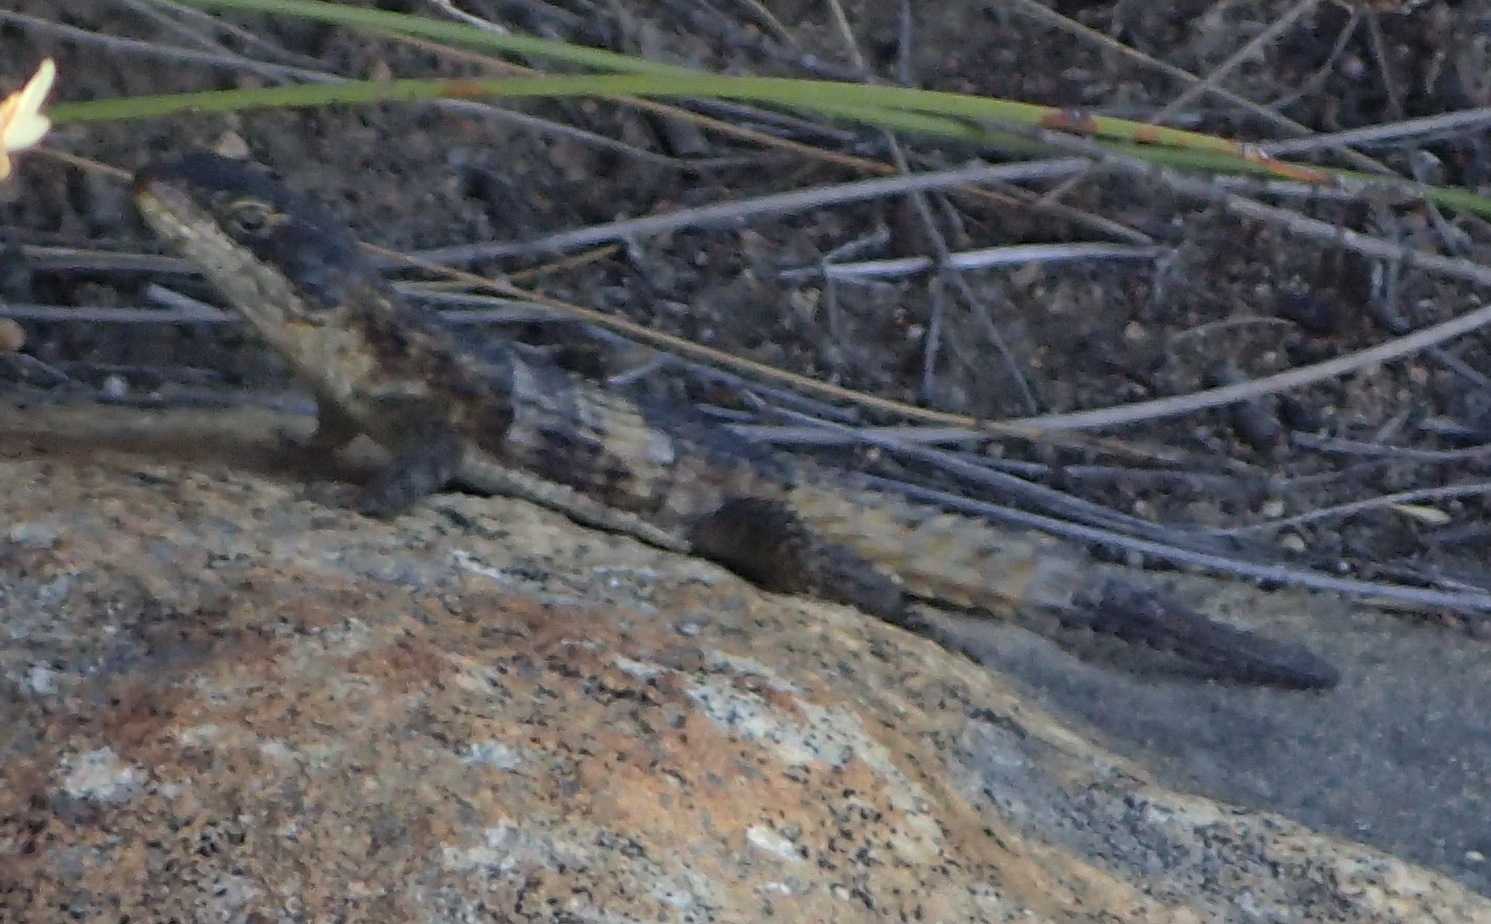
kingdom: Animalia
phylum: Chordata
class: Squamata
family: Cordylidae
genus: Cordylus
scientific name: Cordylus cordylus
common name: Cape girdled lizard
